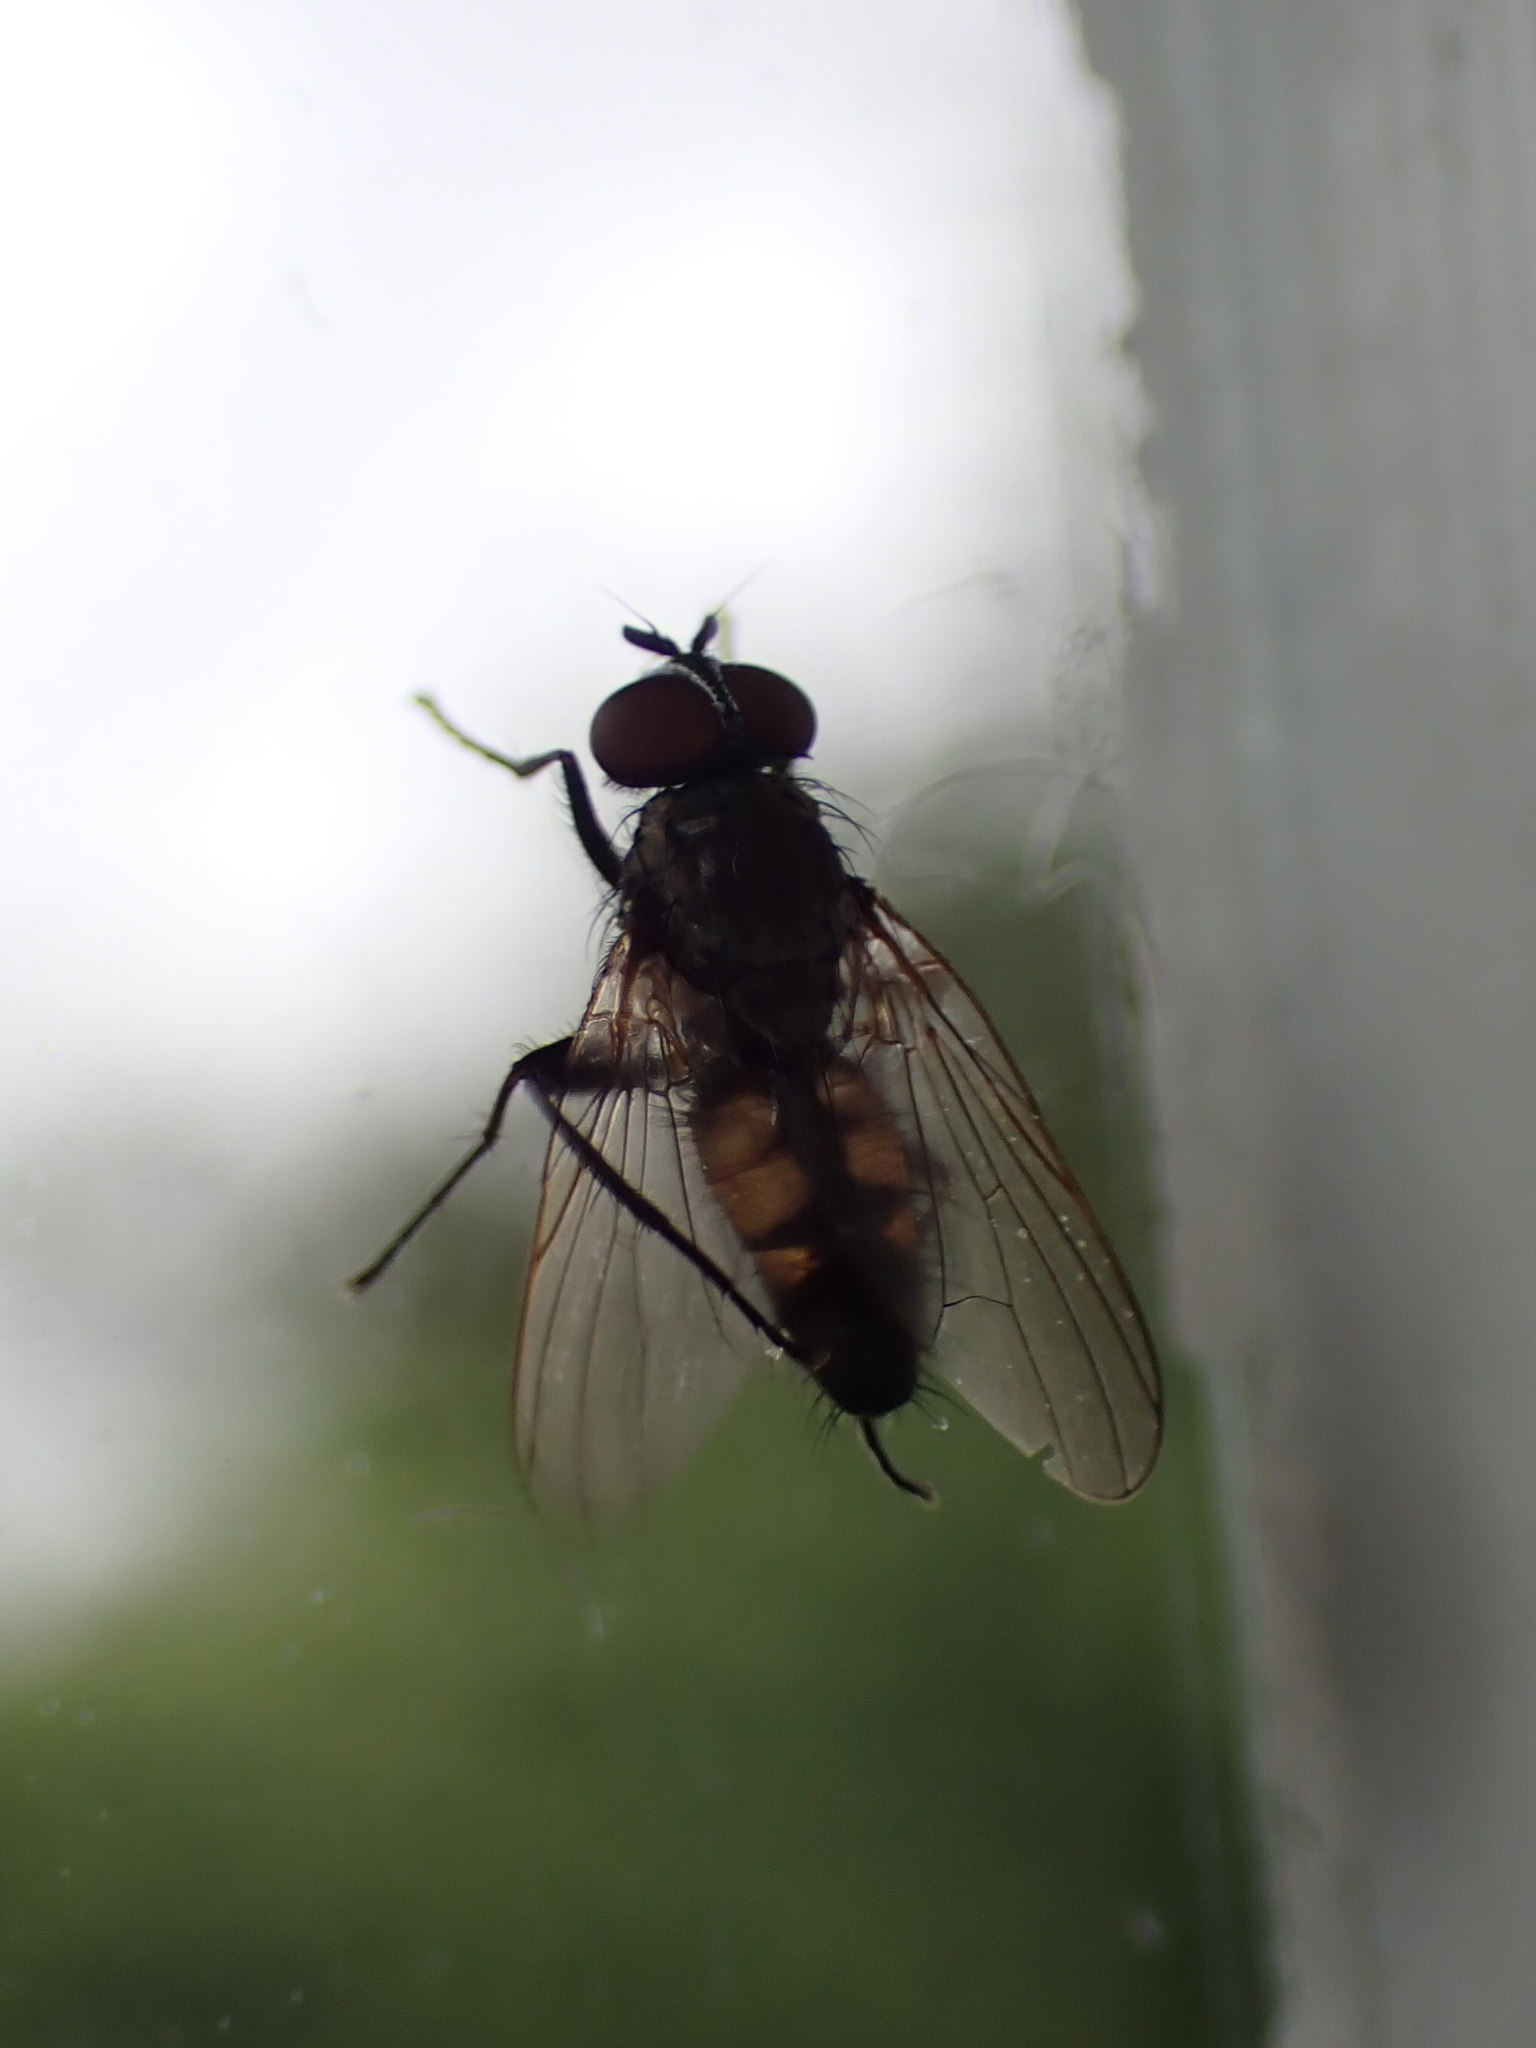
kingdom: Animalia
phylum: Arthropoda
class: Insecta
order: Diptera
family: Fanniidae
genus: Fannia
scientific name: Fannia canicularis
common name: Little house fly
